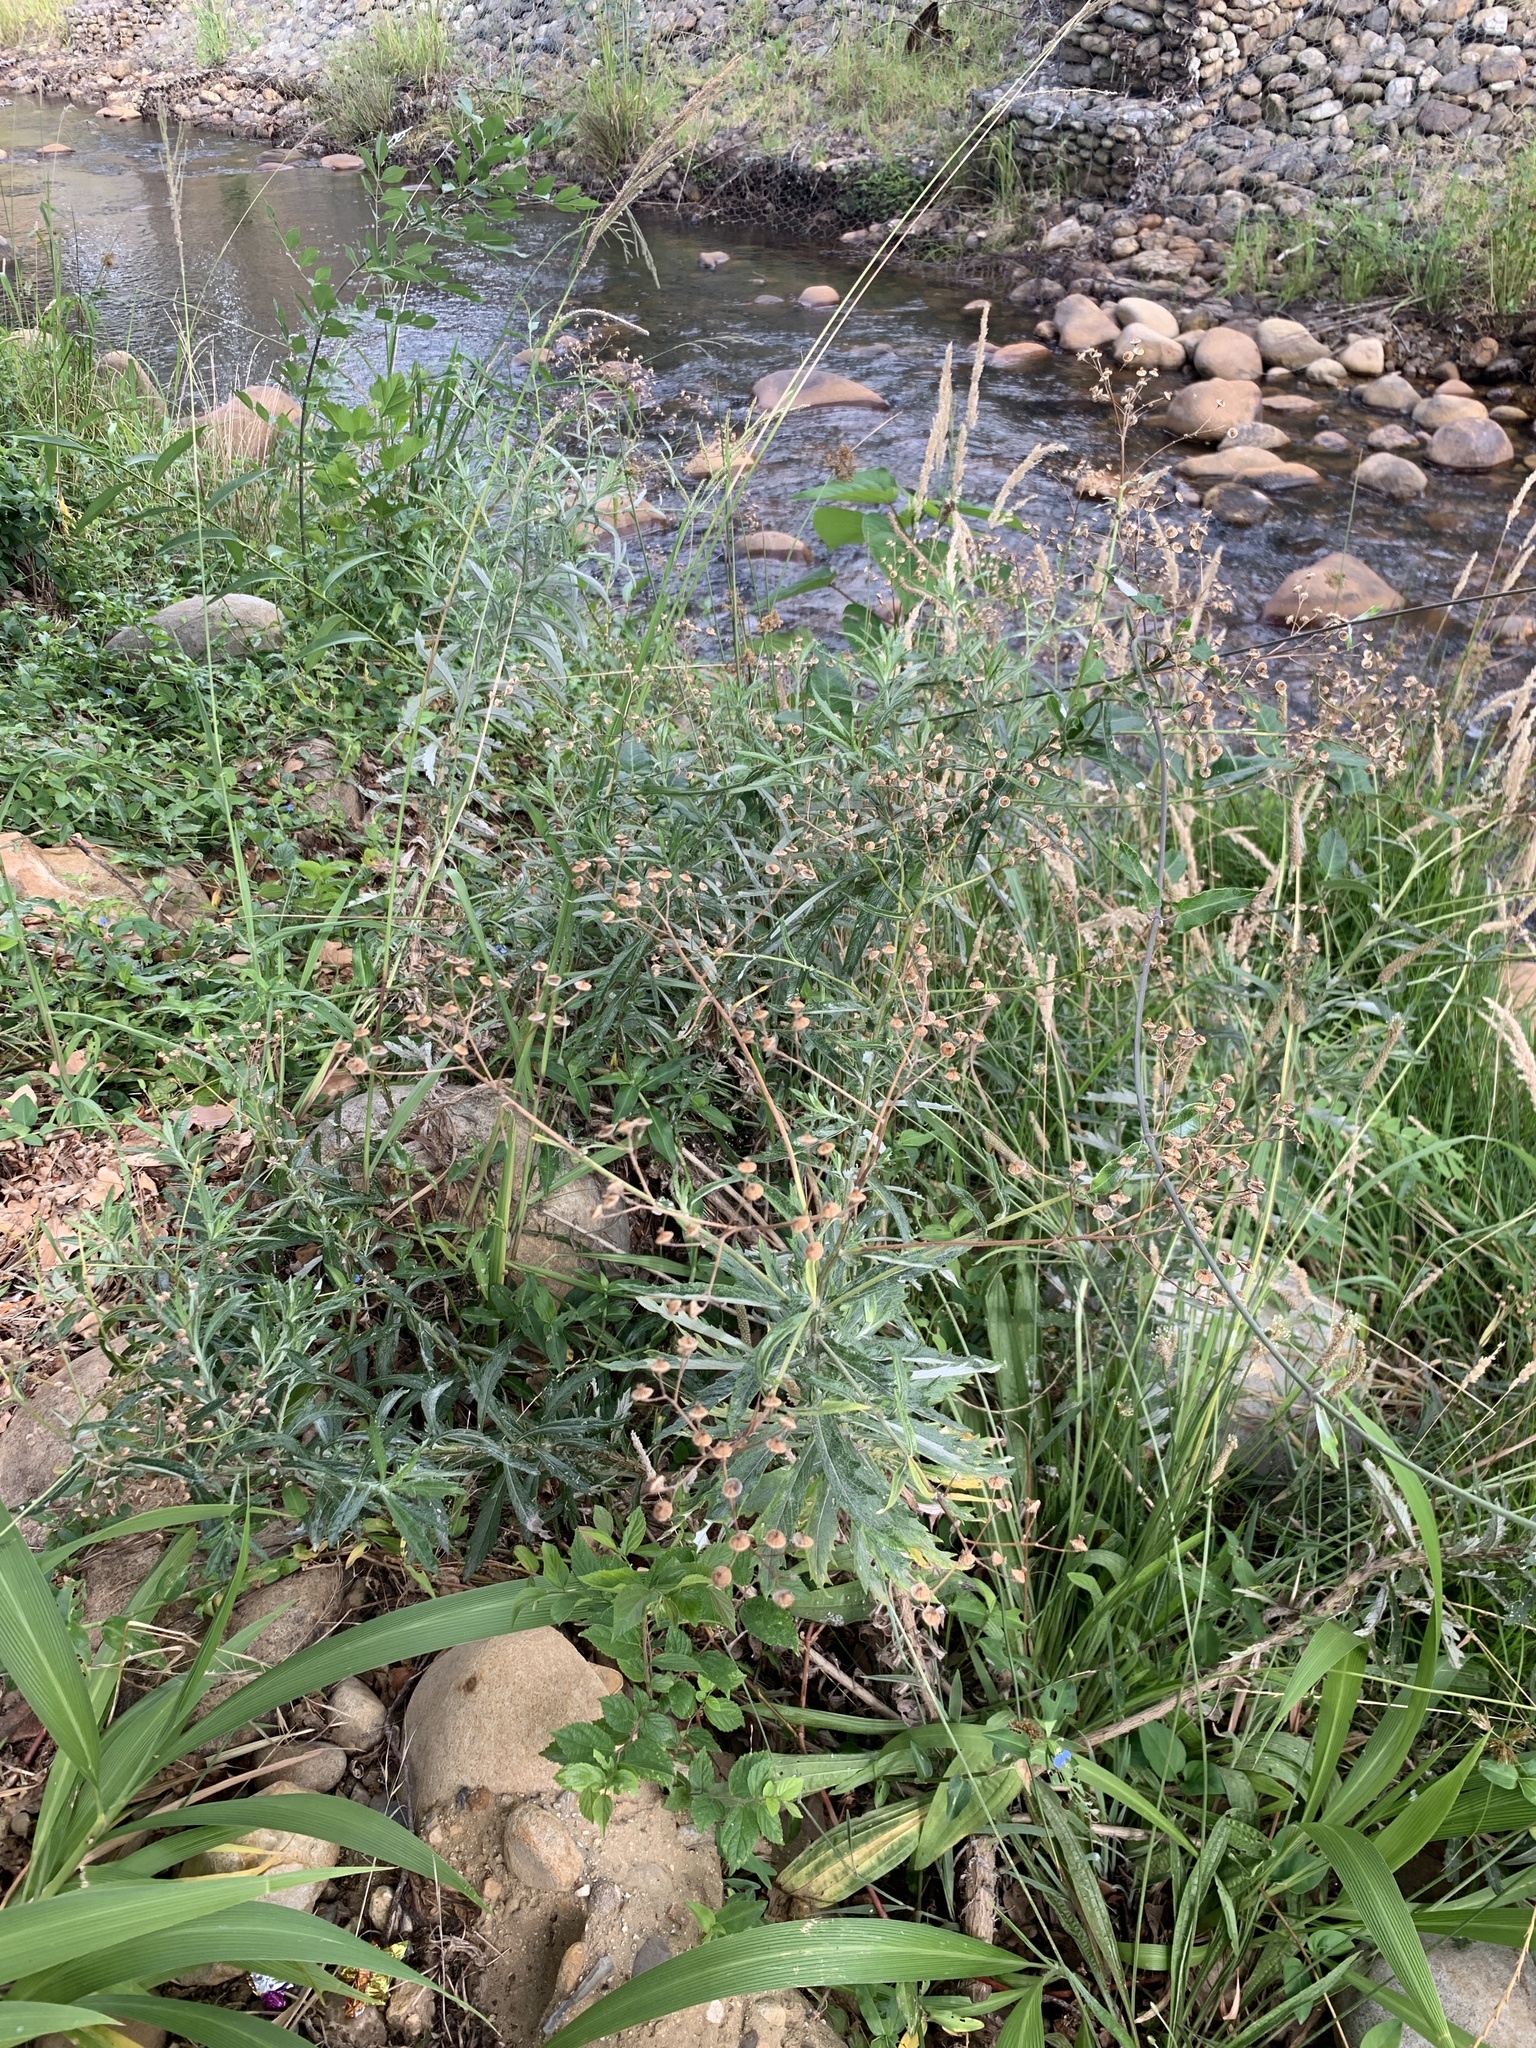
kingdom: Plantae
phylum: Tracheophyta
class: Magnoliopsida
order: Asterales
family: Asteraceae
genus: Senecio
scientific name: Senecio pterophorus
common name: Shoddy ragwort
